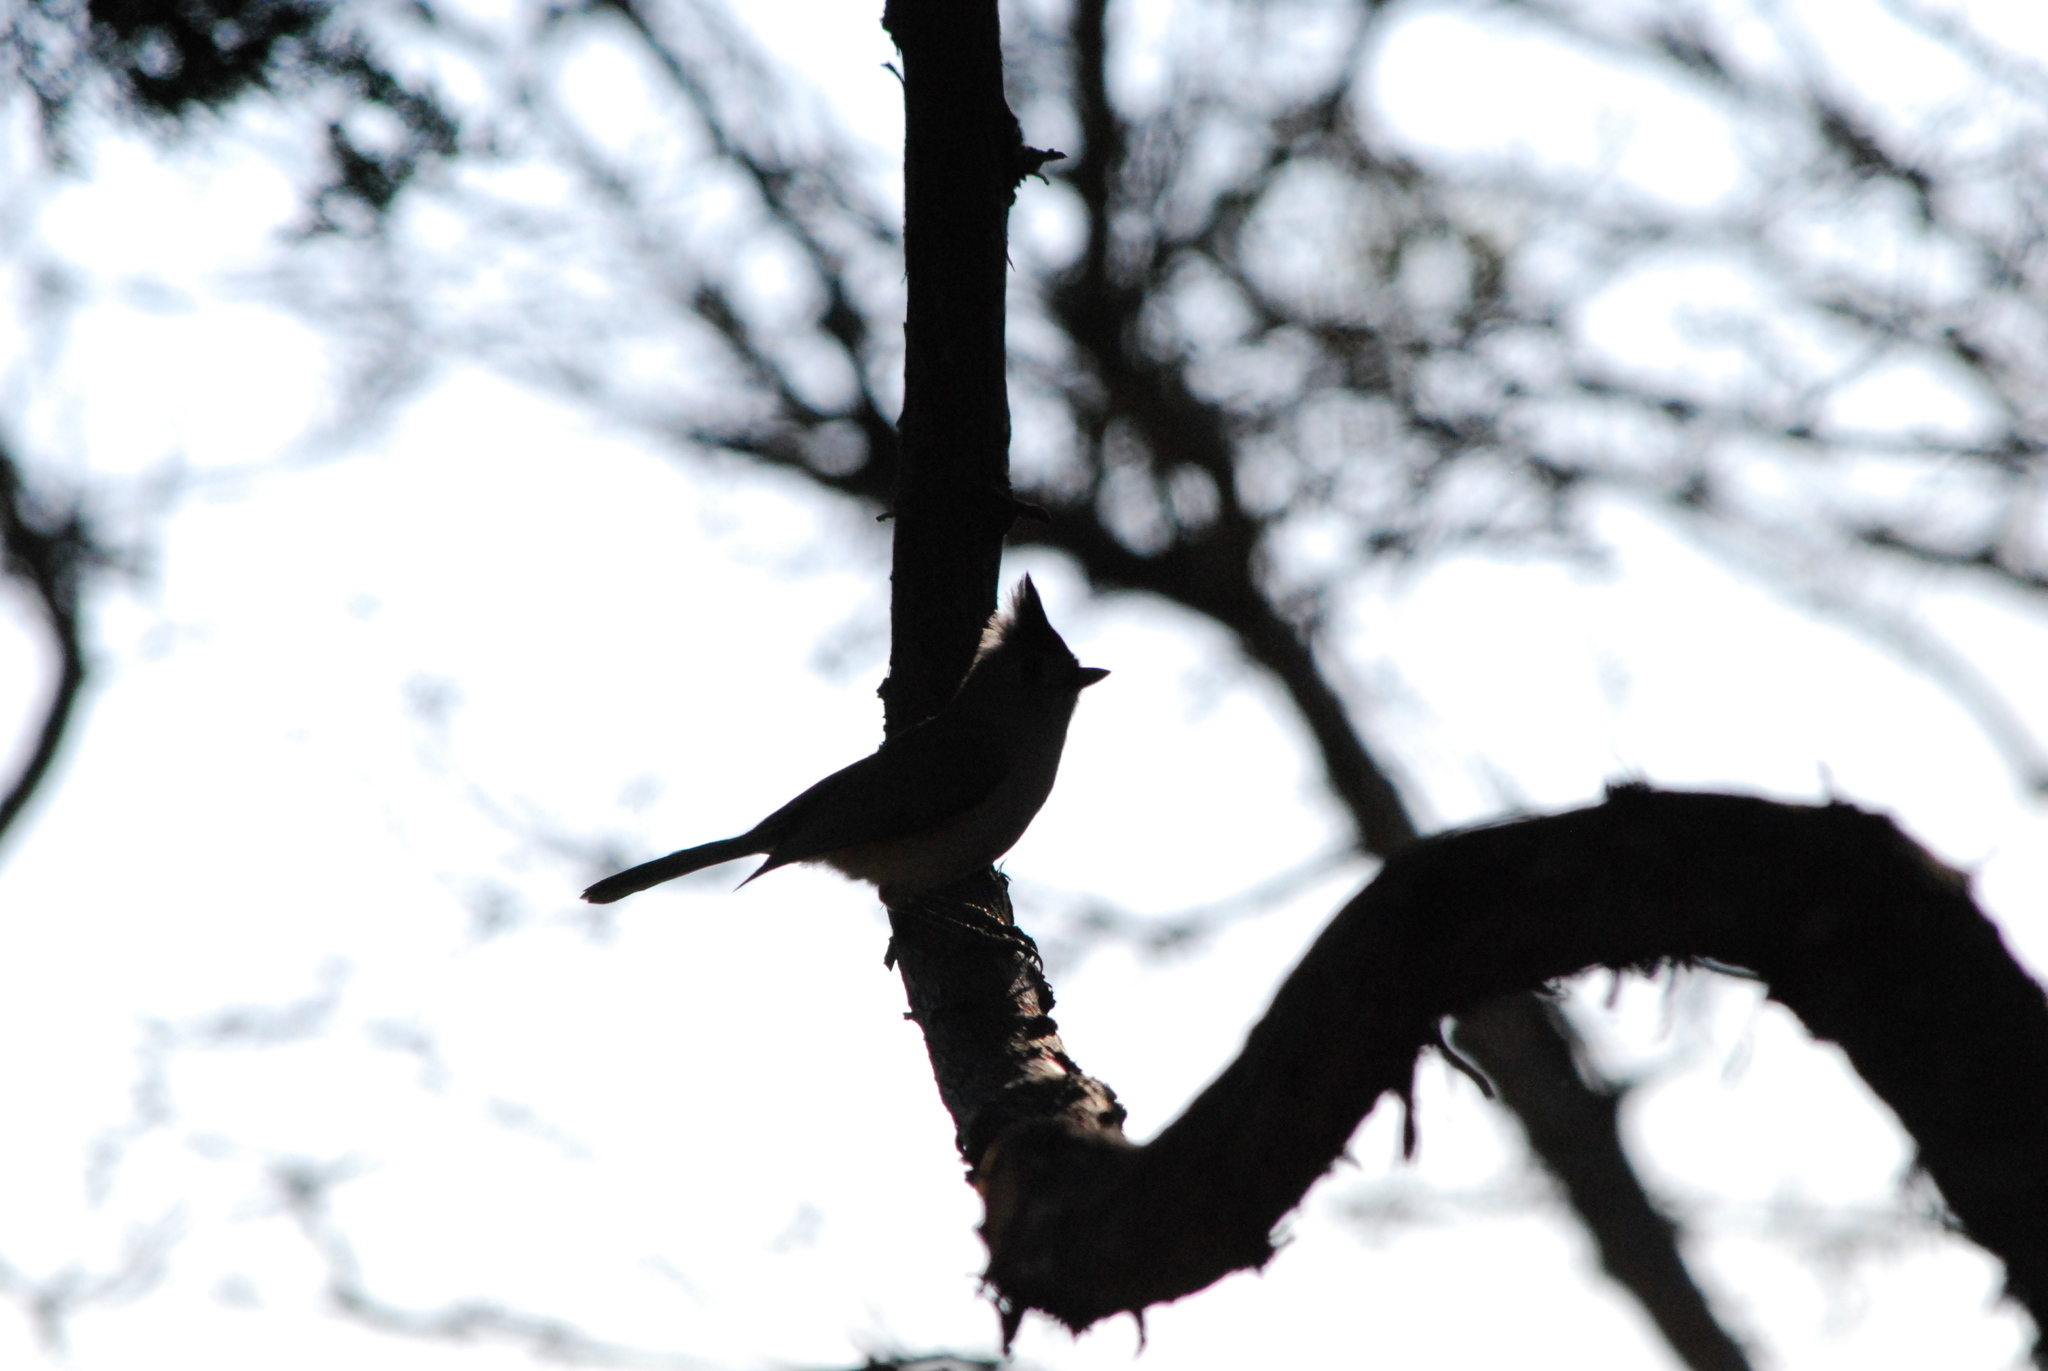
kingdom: Animalia
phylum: Chordata
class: Aves
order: Passeriformes
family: Paridae
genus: Baeolophus
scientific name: Baeolophus atricristatus
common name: Black-crested titmouse
